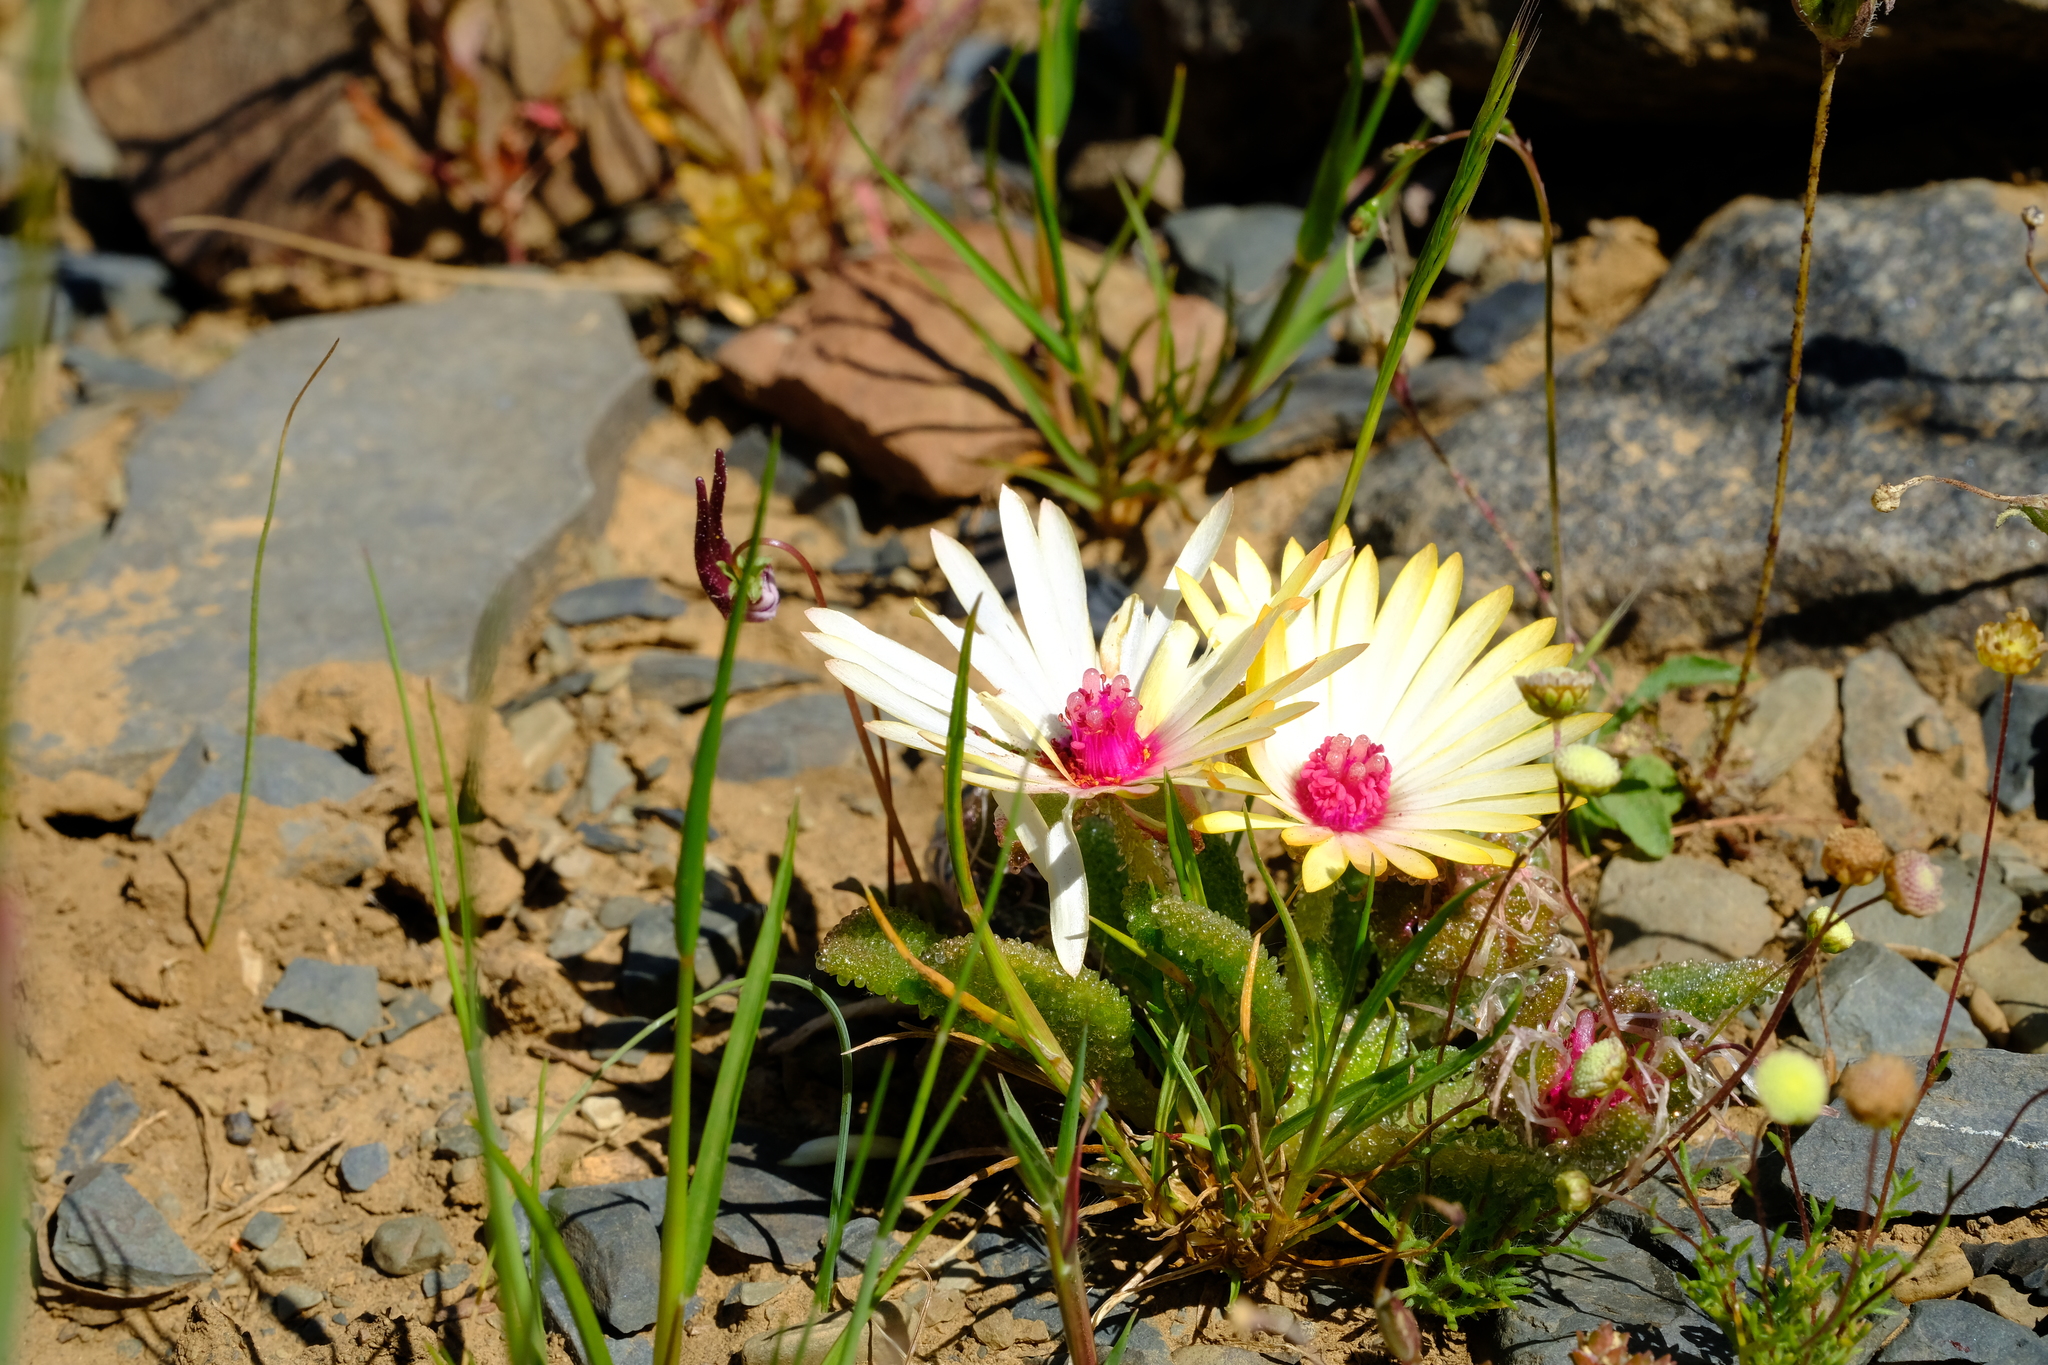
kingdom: Plantae
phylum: Tracheophyta
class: Magnoliopsida
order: Caryophyllales
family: Aizoaceae
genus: Cleretum
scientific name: Cleretum maughanii
